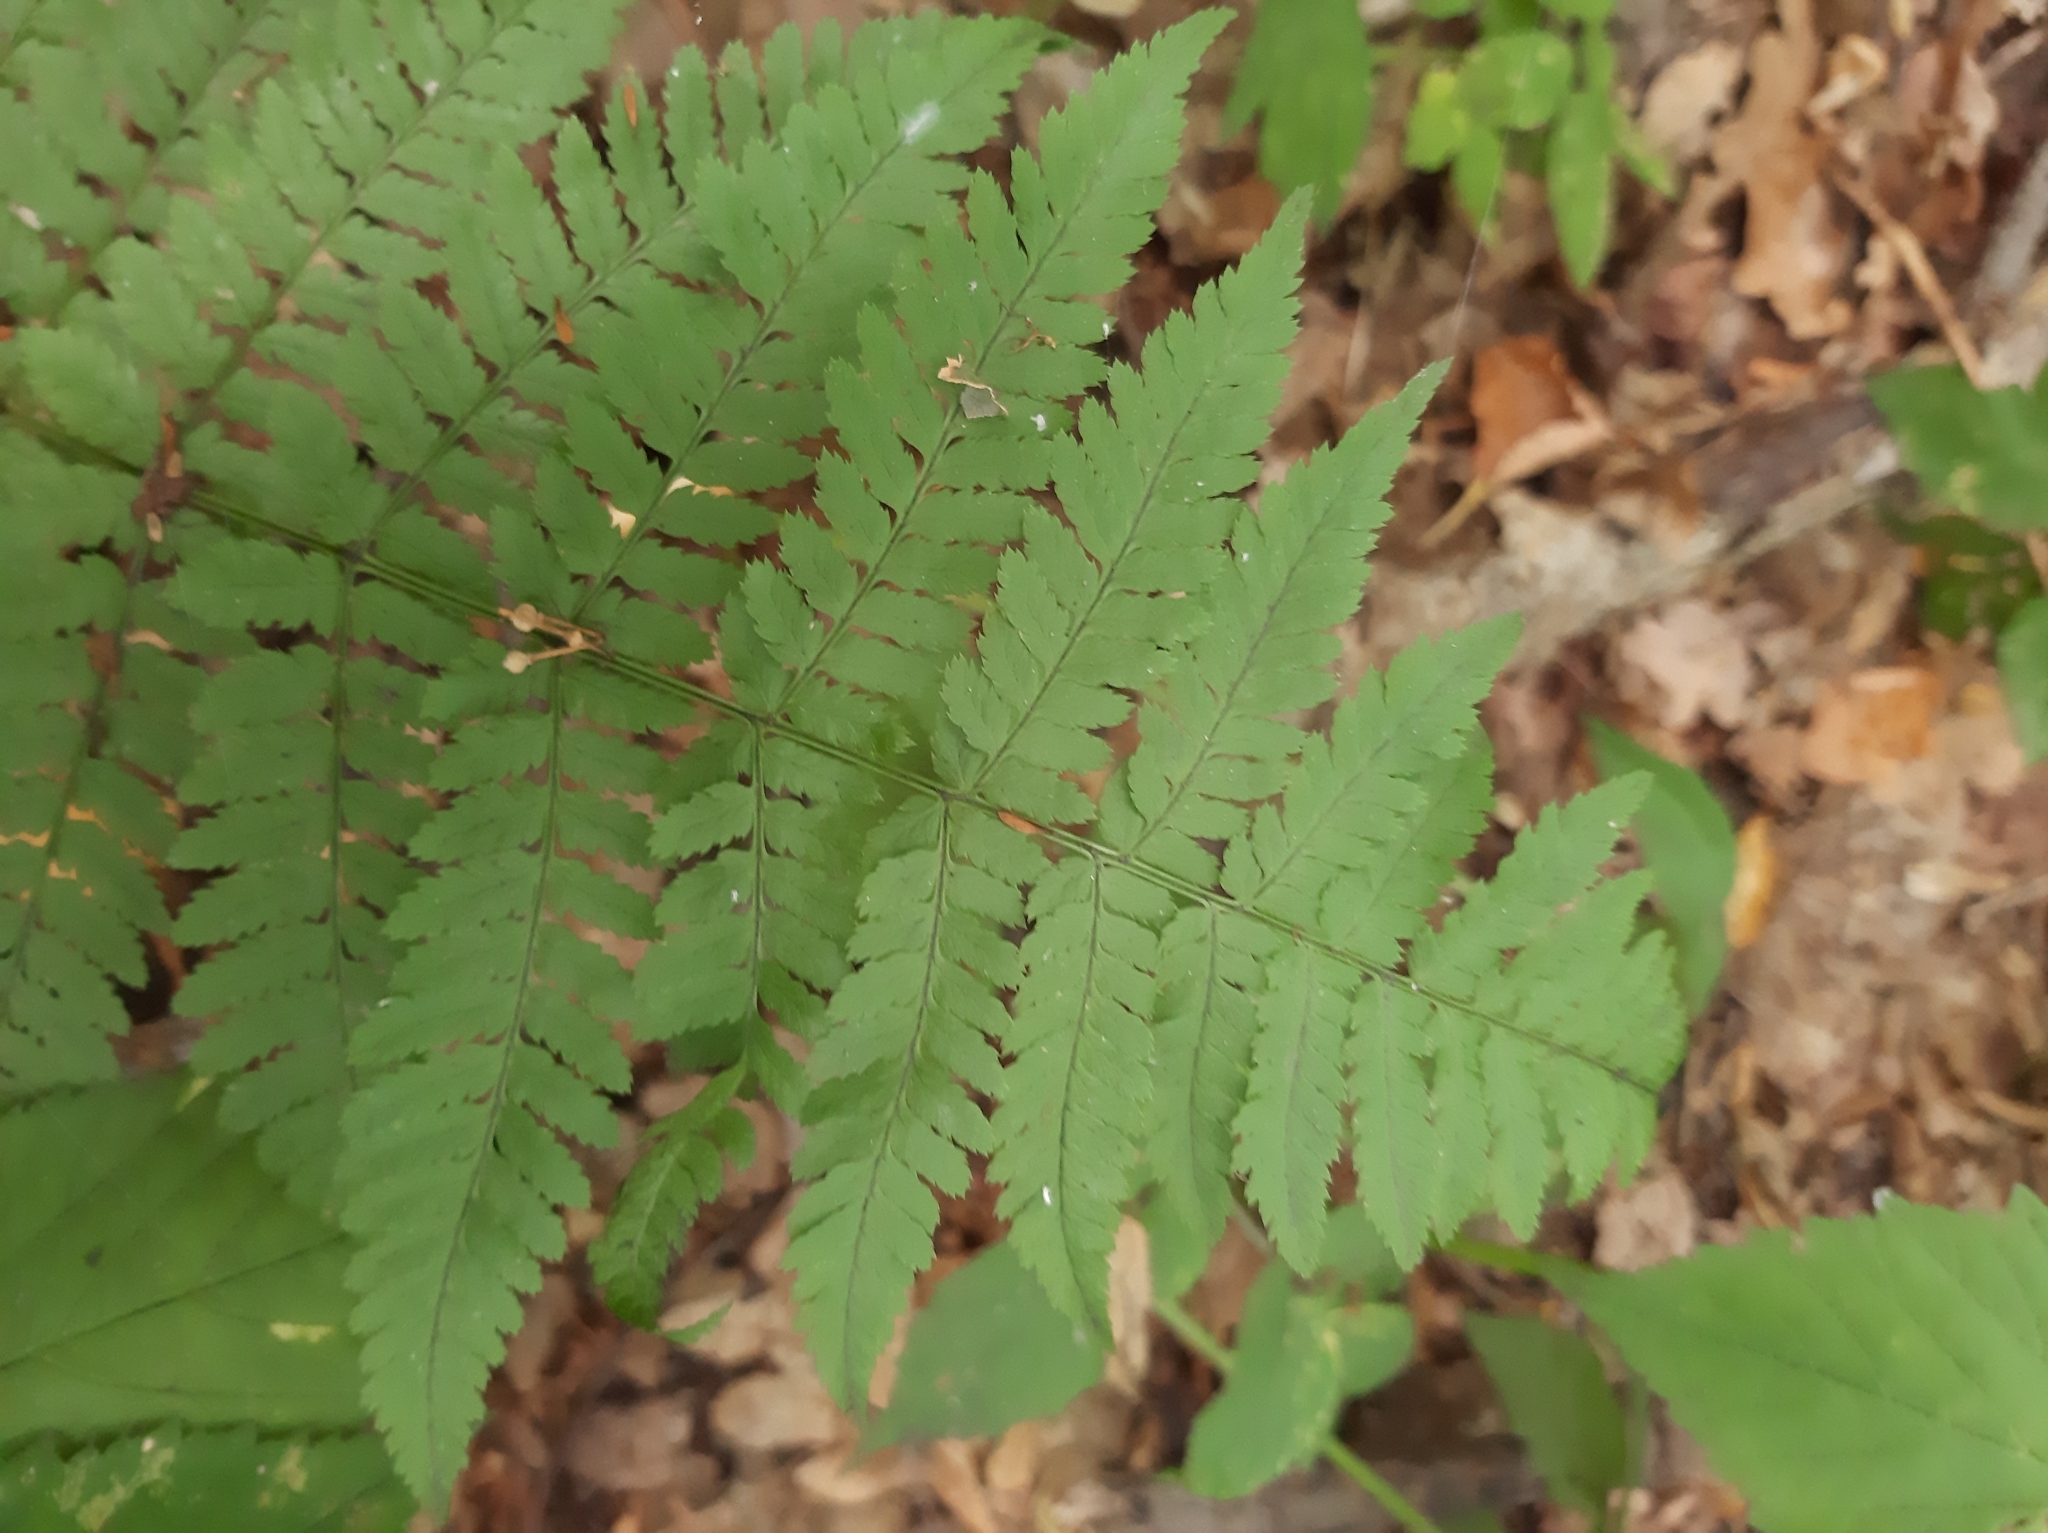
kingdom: Plantae
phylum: Tracheophyta
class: Polypodiopsida
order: Polypodiales
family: Dryopteridaceae
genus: Dryopteris
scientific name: Dryopteris carthusiana
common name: Narrow buckler-fern
